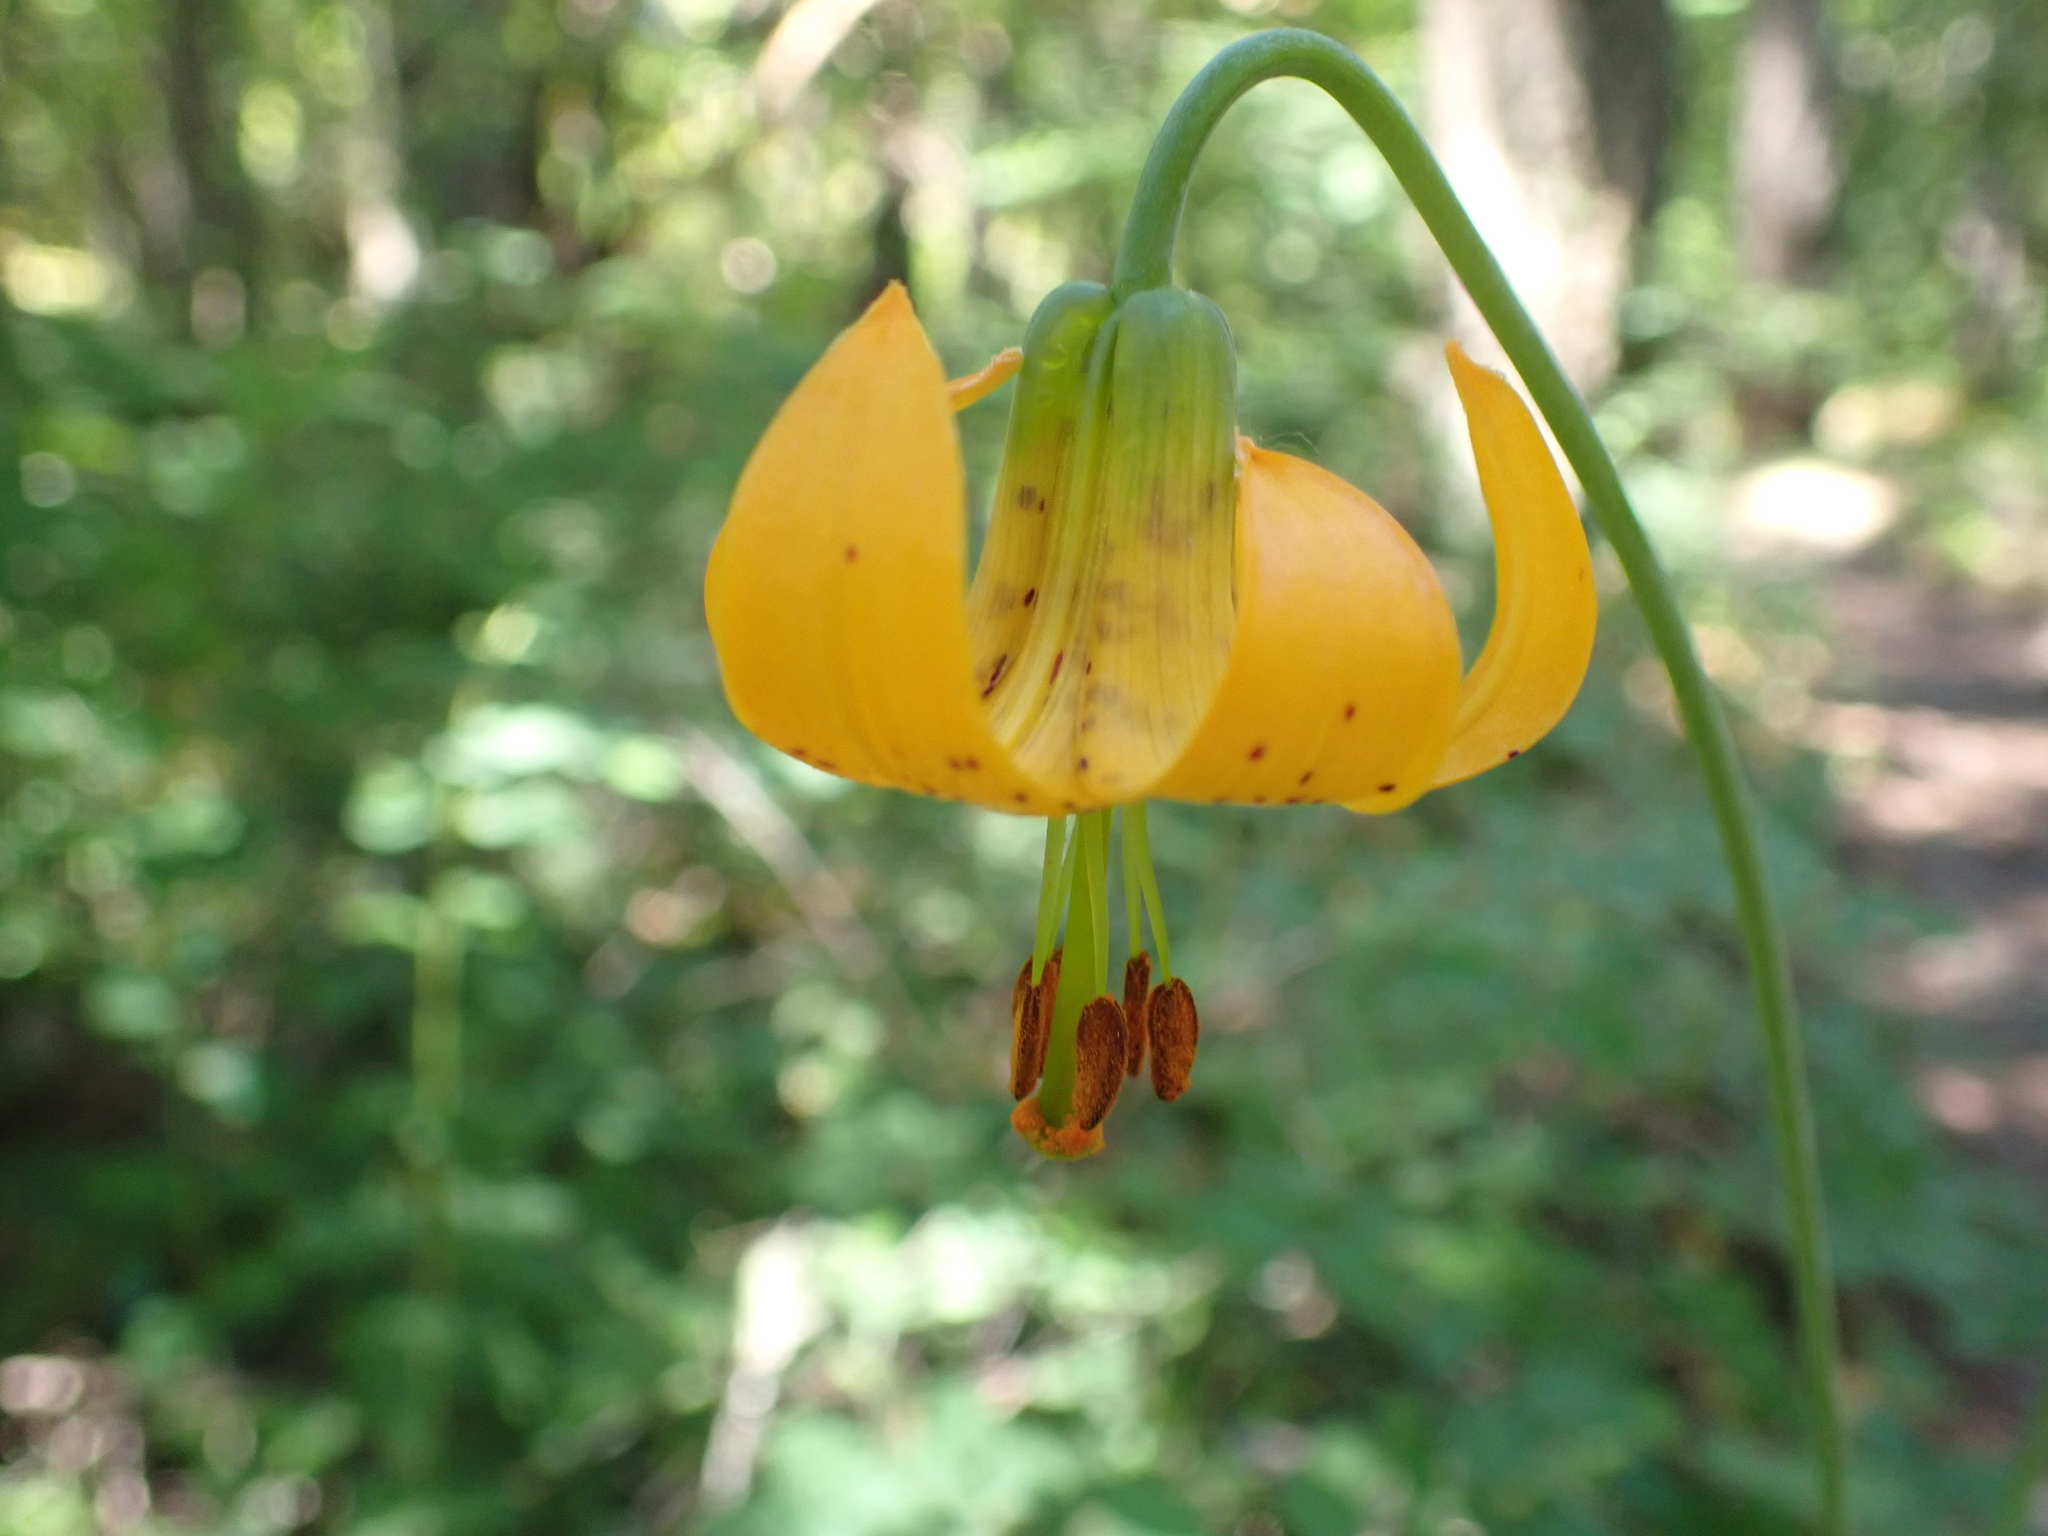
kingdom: Plantae
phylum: Tracheophyta
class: Liliopsida
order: Liliales
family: Liliaceae
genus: Lilium
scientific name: Lilium columbianum
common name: Columbia lily
